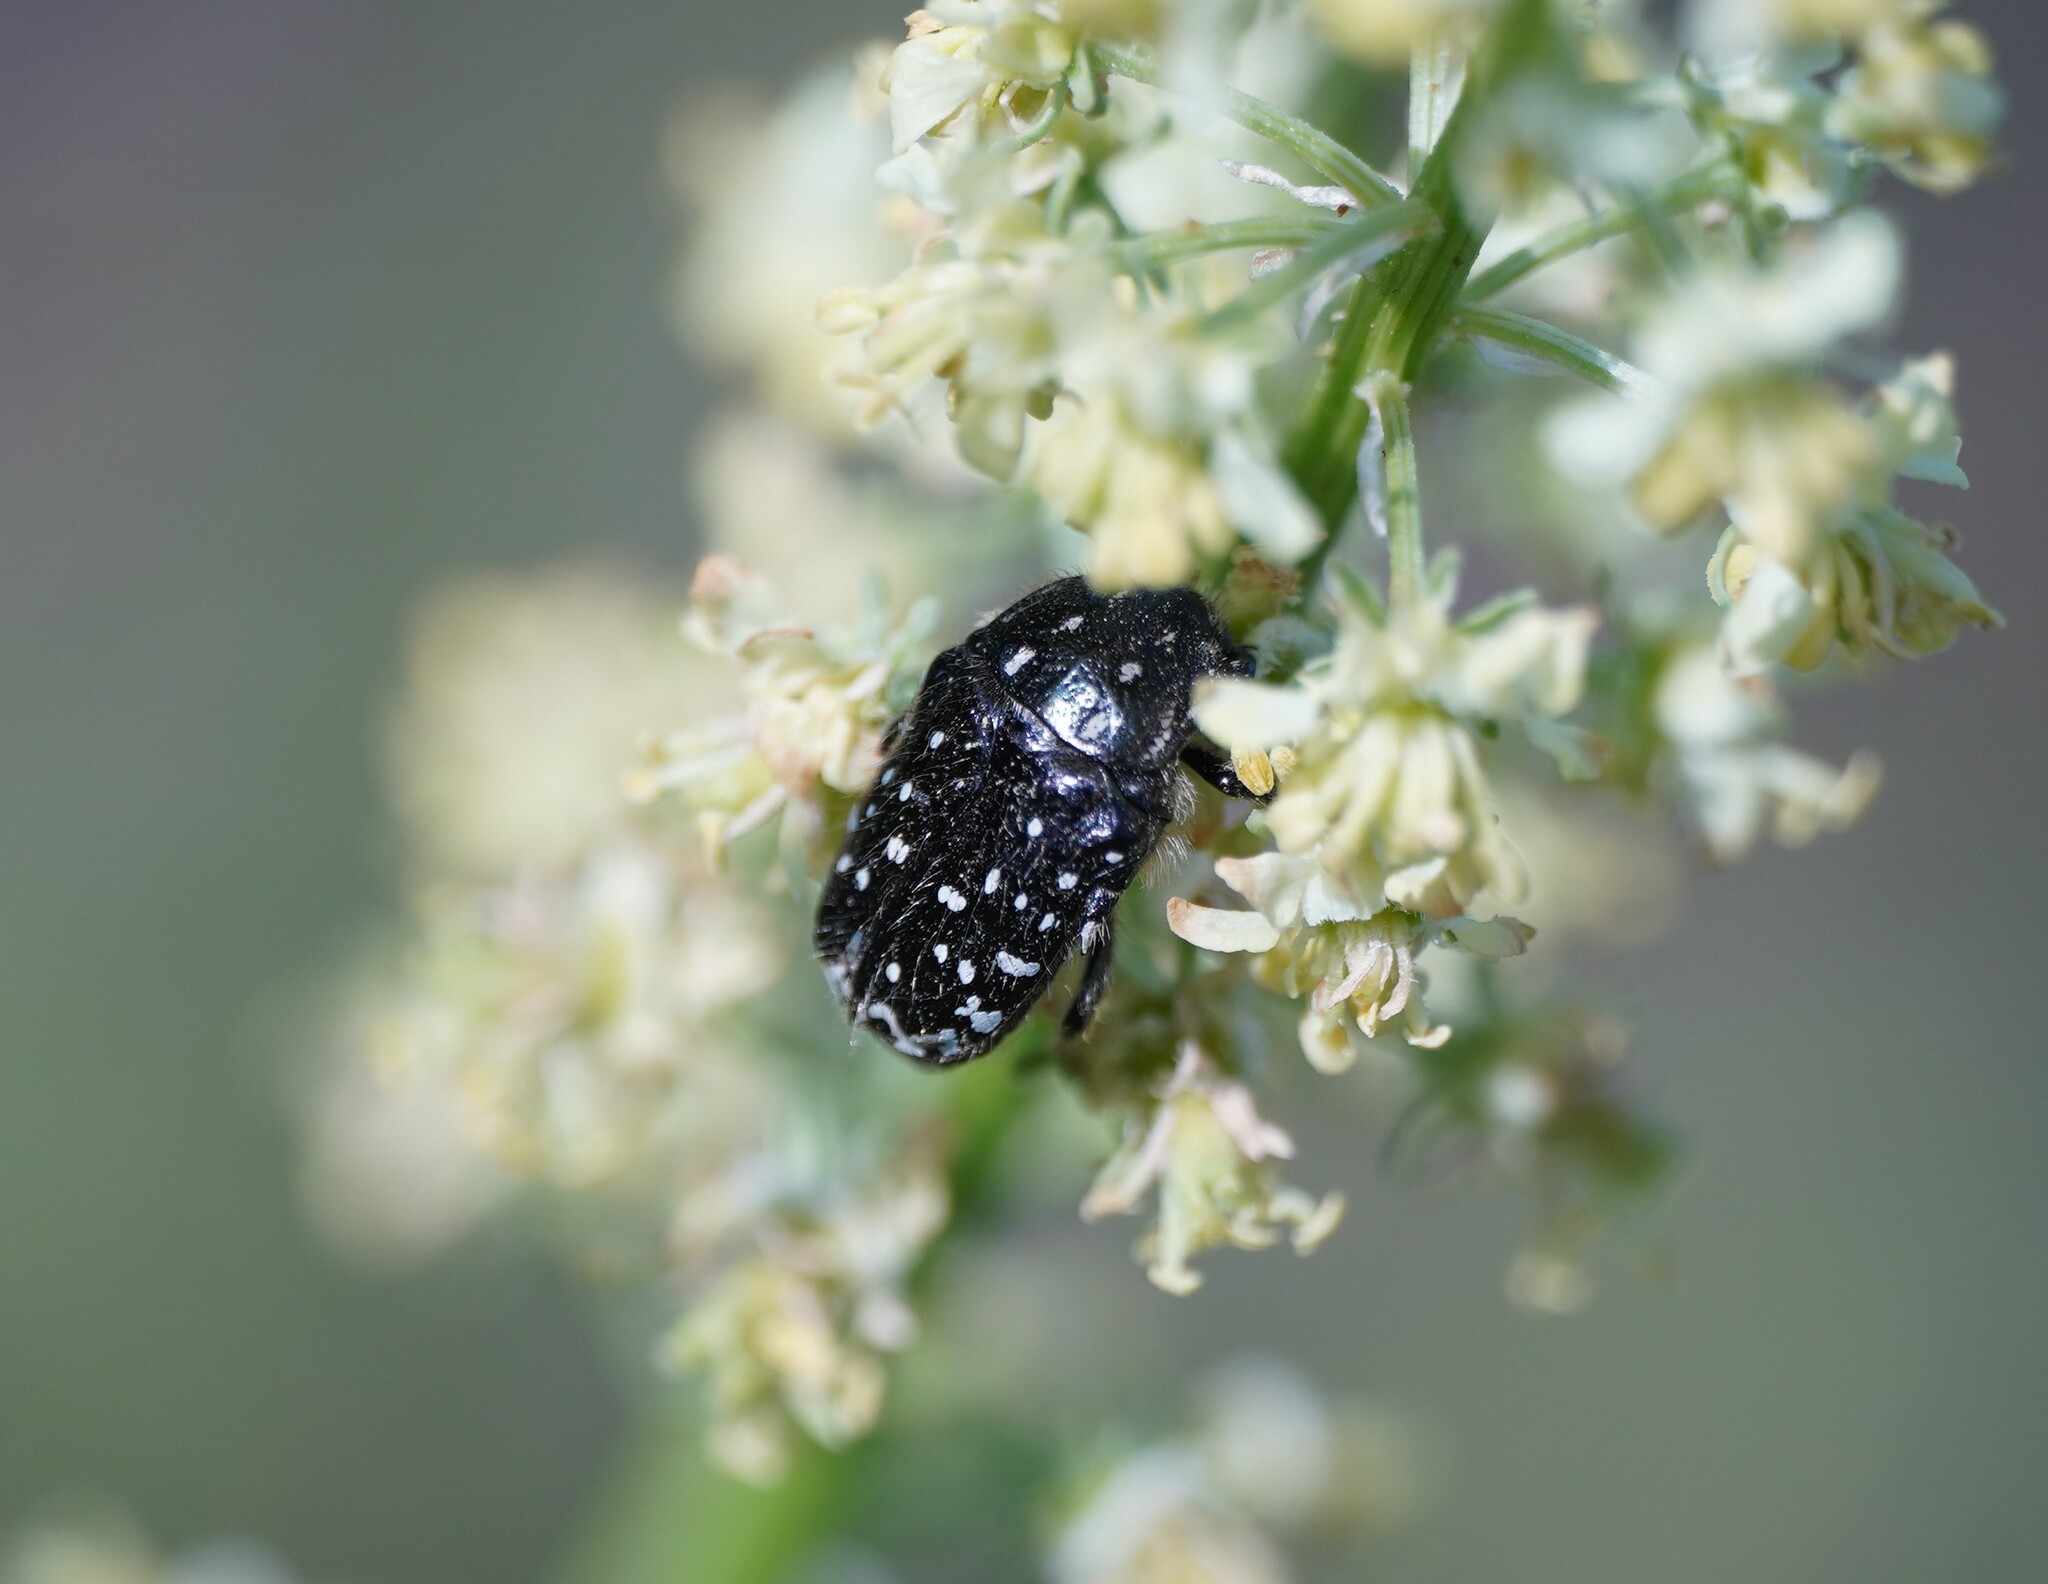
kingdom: Animalia
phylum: Arthropoda
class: Insecta
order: Coleoptera
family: Scarabaeidae
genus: Oxythyrea
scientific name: Oxythyrea funesta
